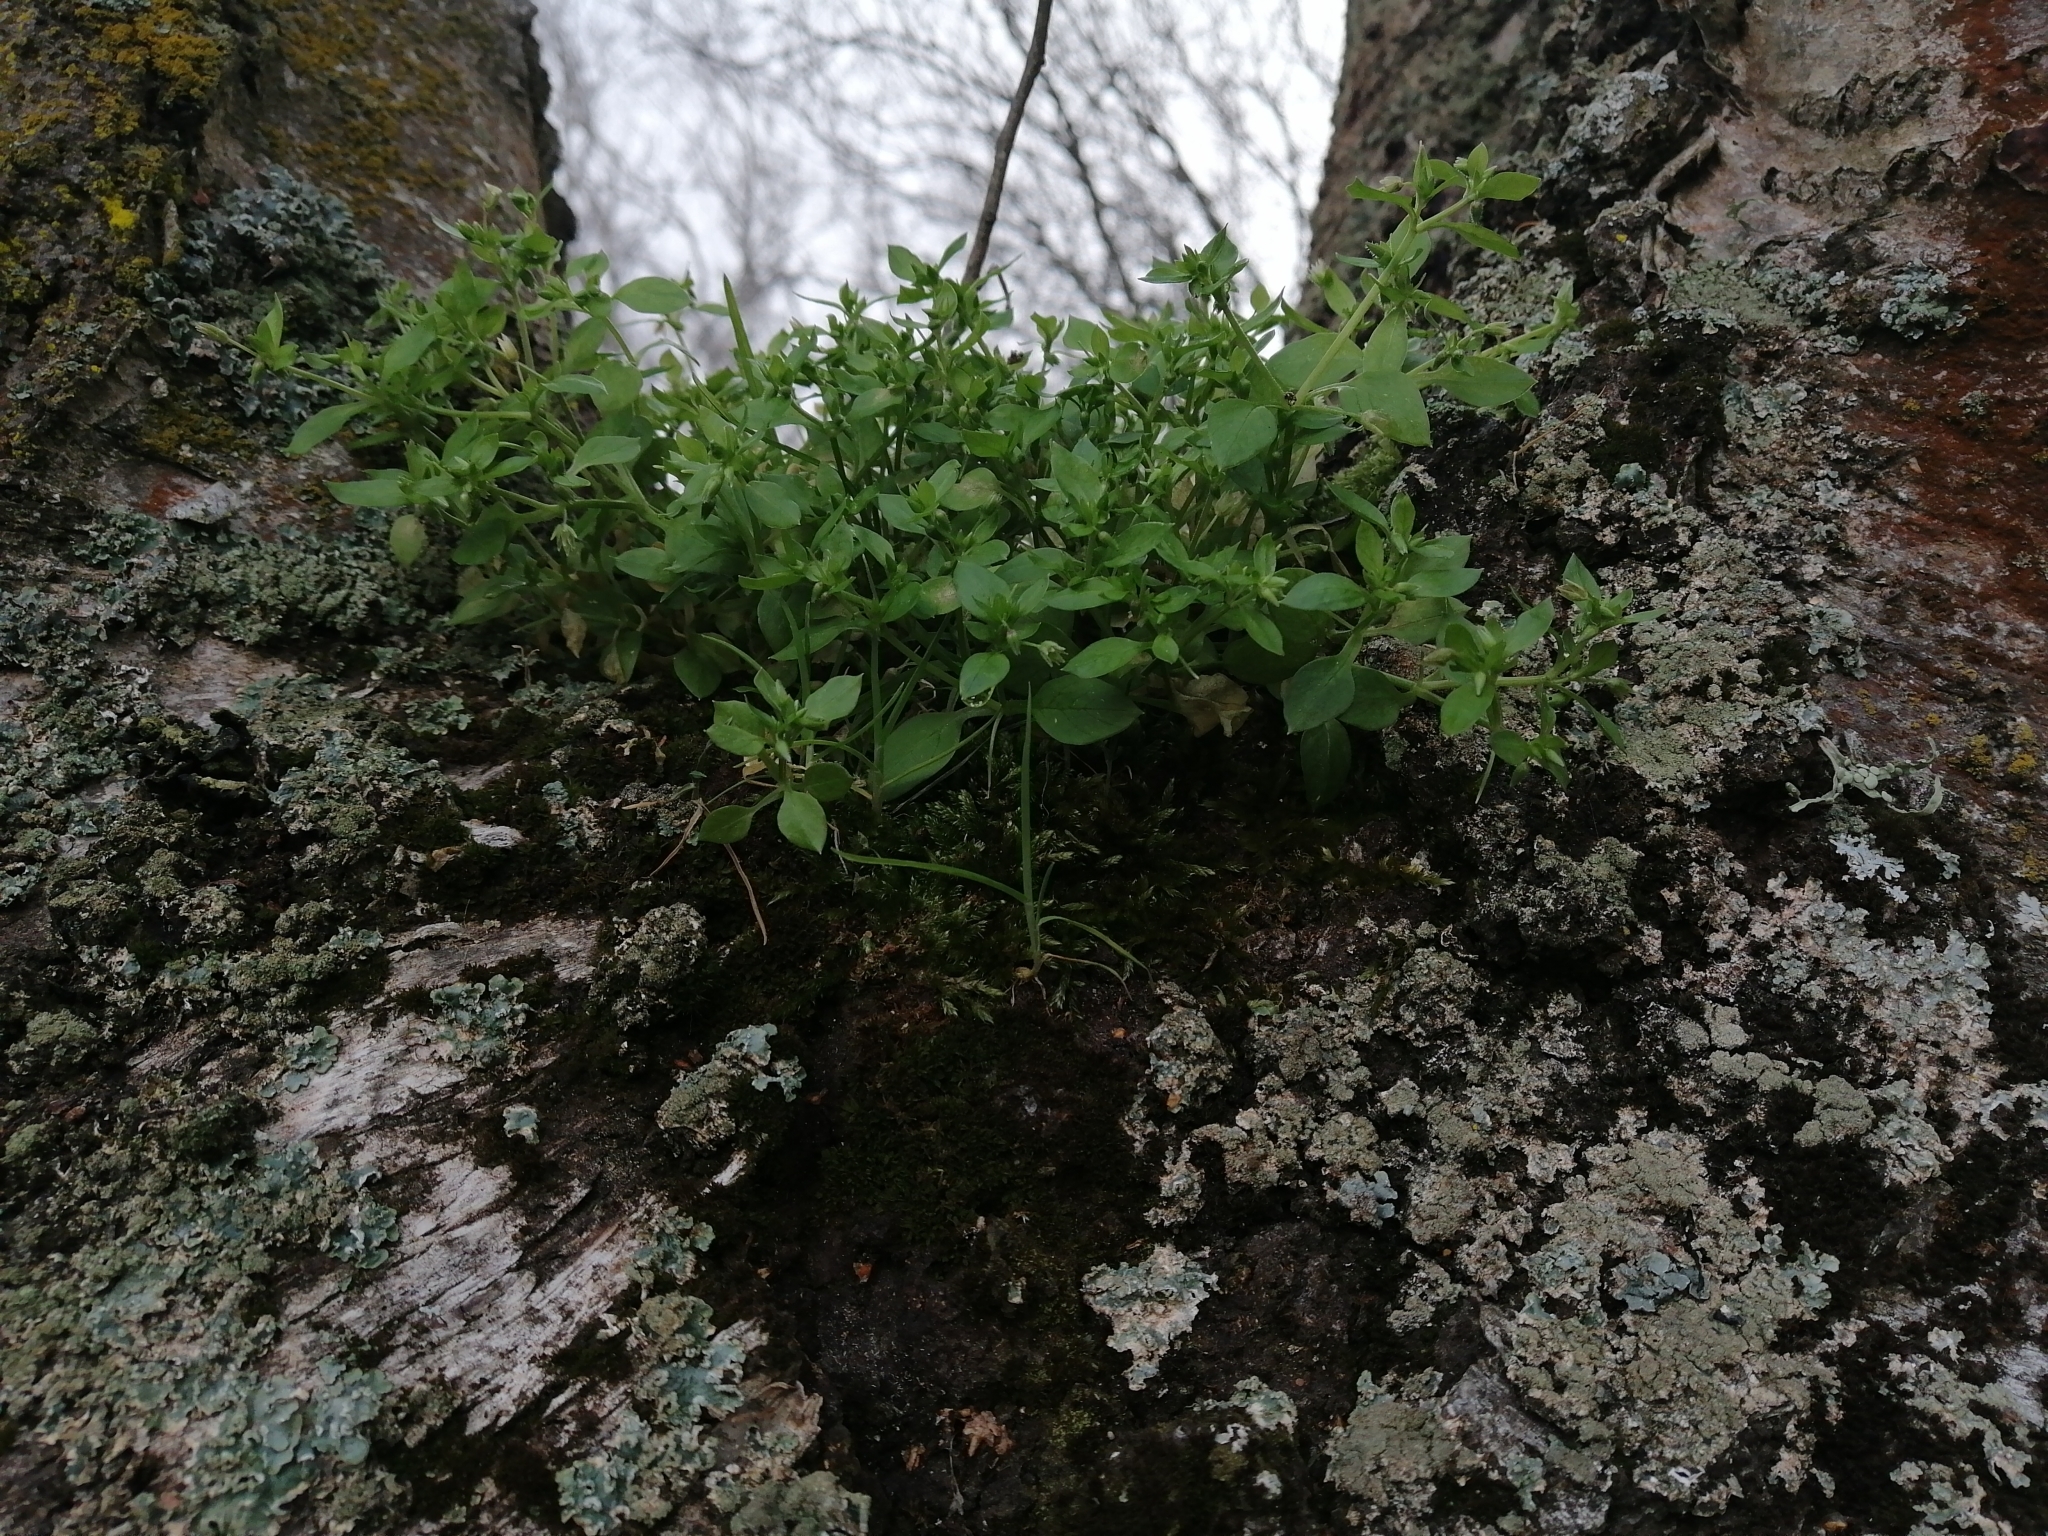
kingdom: Plantae
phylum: Tracheophyta
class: Magnoliopsida
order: Caryophyllales
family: Caryophyllaceae
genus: Stellaria
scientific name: Stellaria media
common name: Common chickweed
